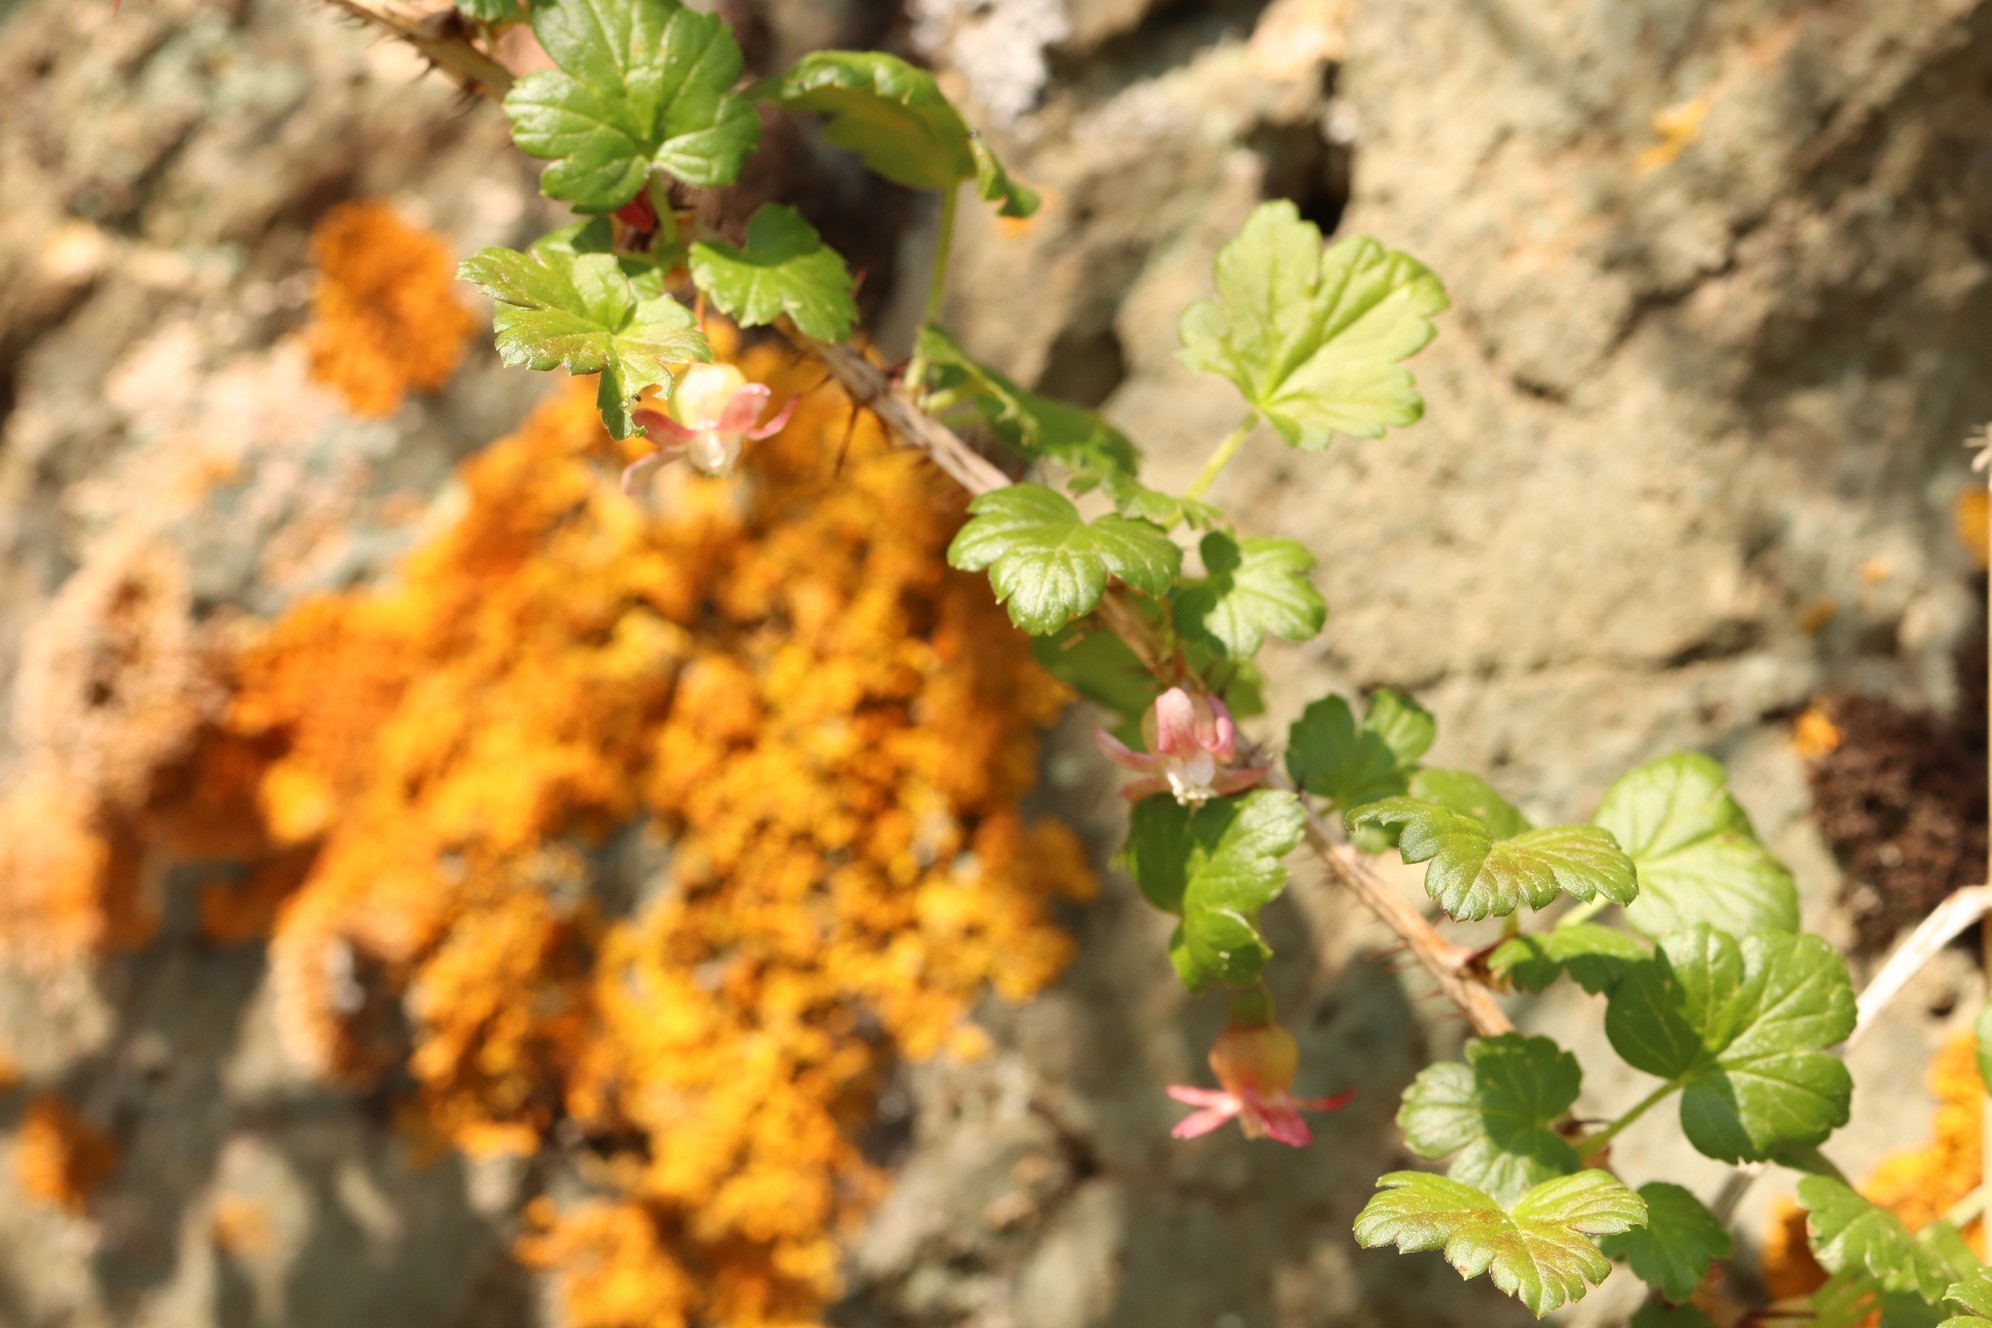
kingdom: Plantae
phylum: Tracheophyta
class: Magnoliopsida
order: Saxifragales
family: Grossulariaceae
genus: Ribes
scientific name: Ribes aciculare
